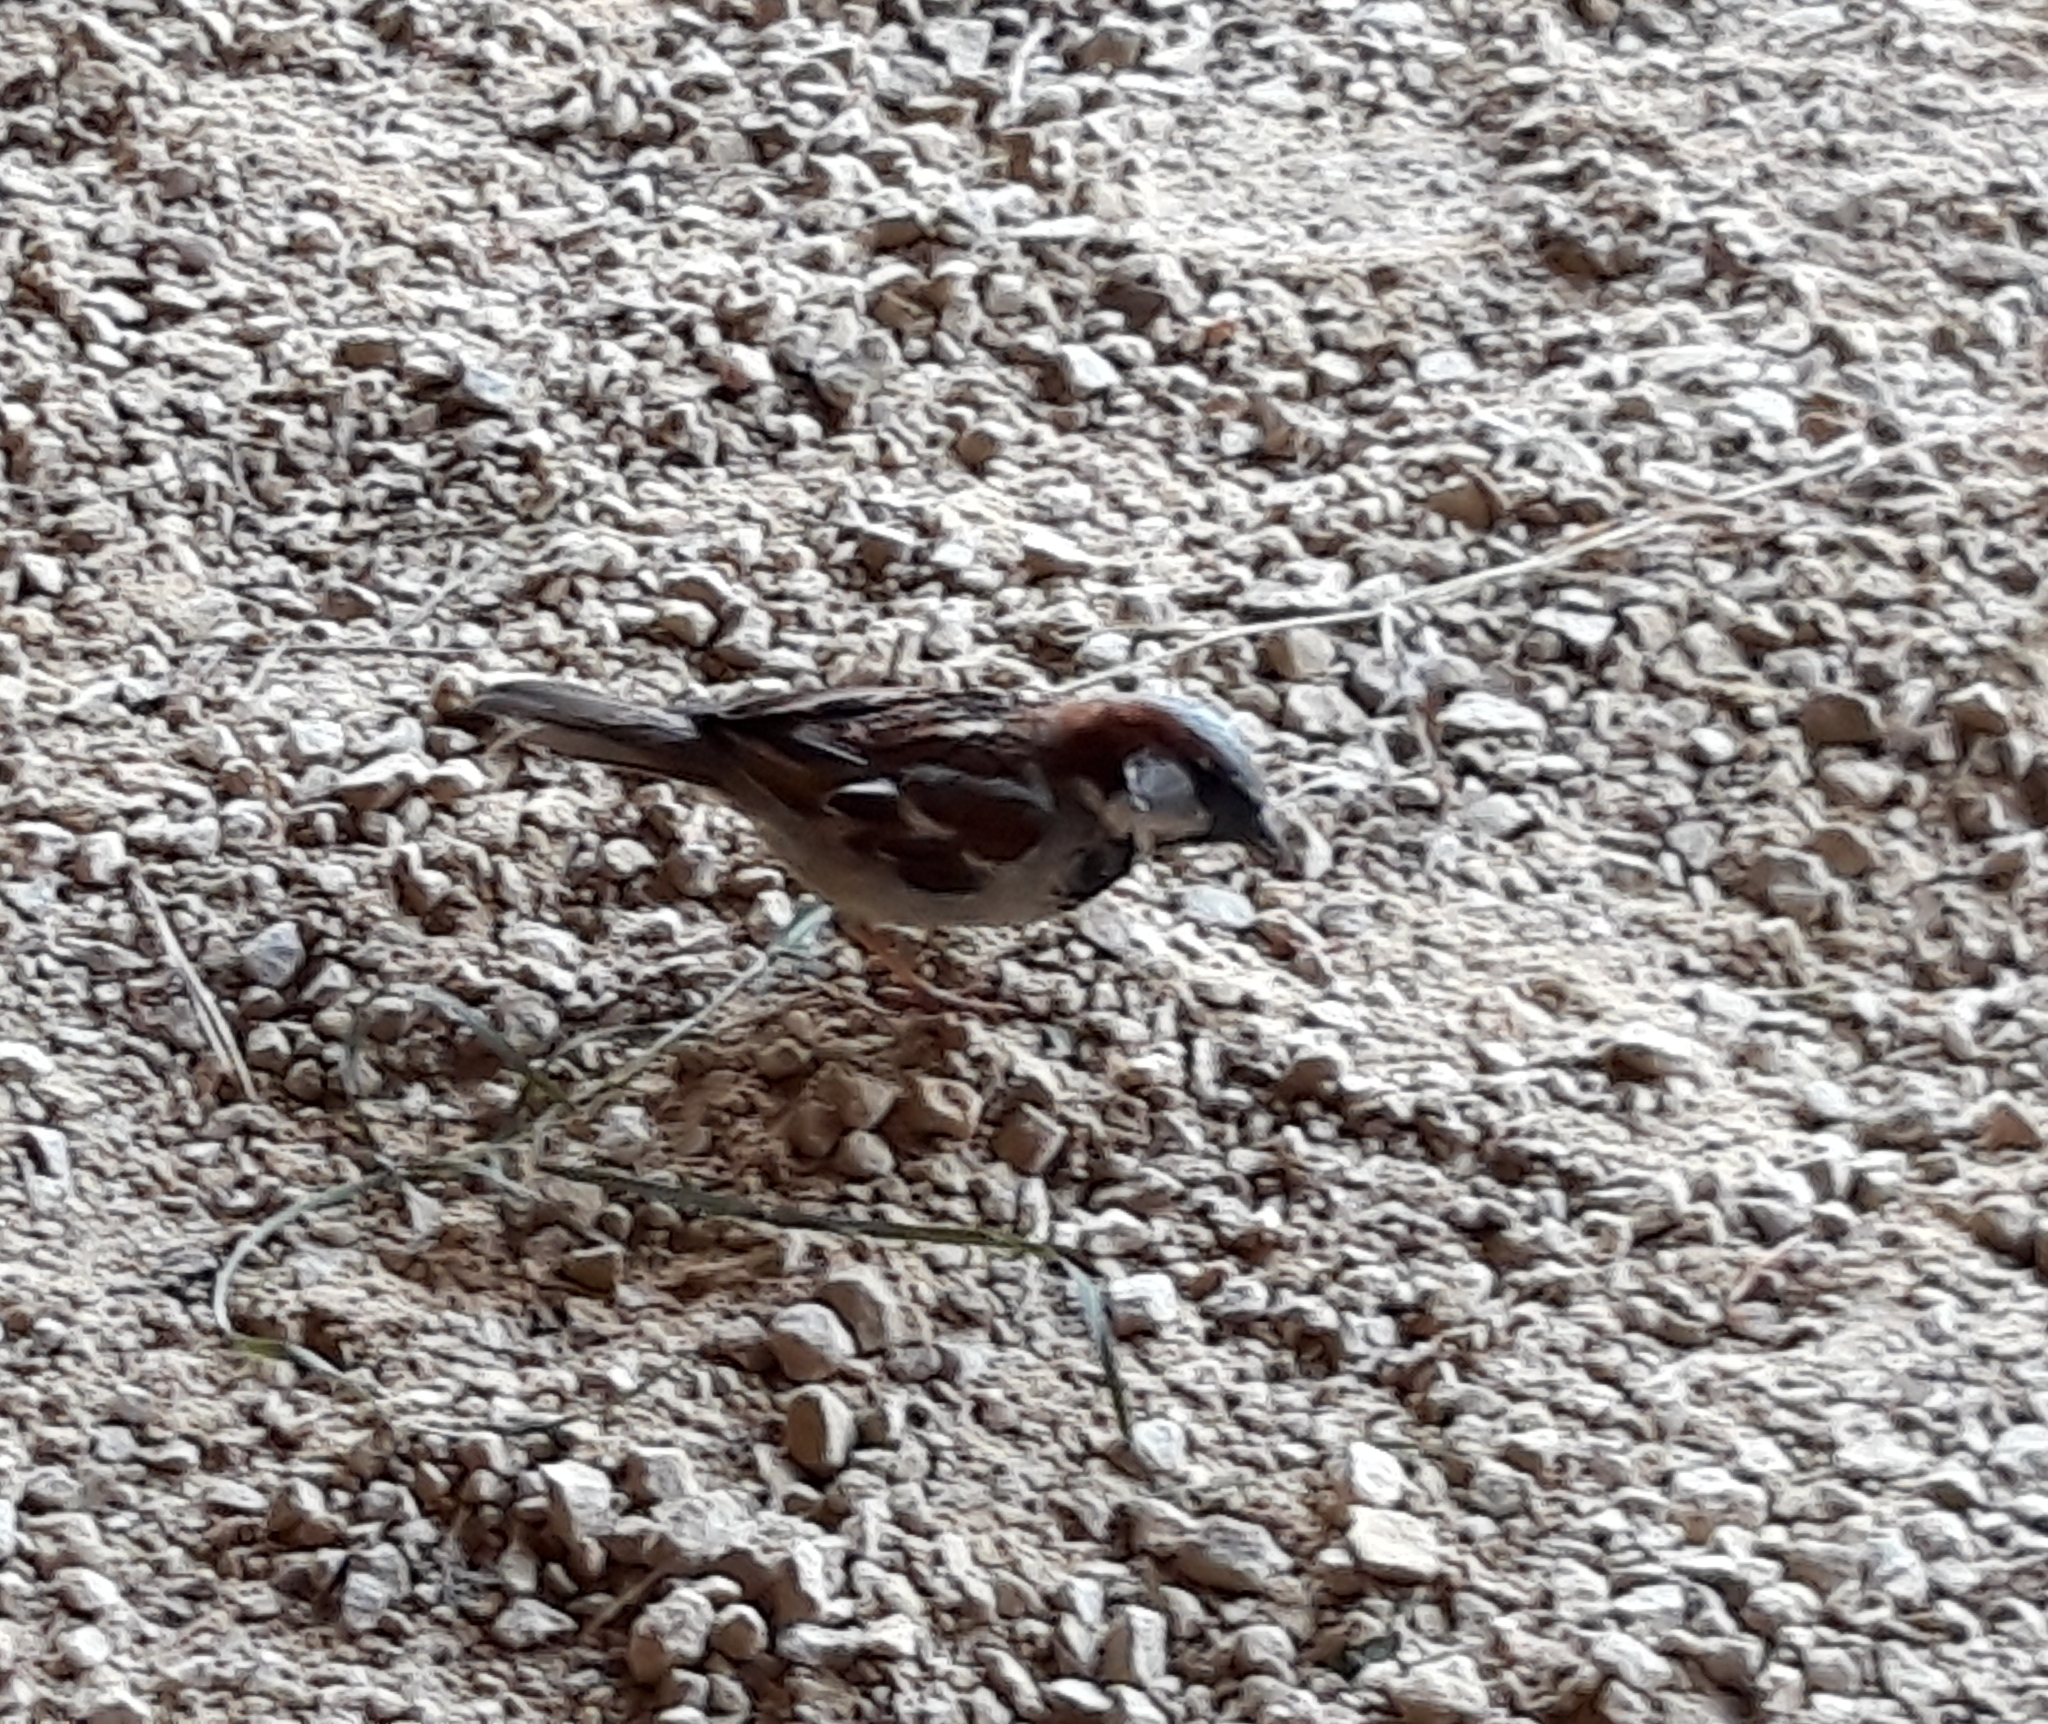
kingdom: Animalia
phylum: Chordata
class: Aves
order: Passeriformes
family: Passeridae
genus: Passer
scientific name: Passer domesticus
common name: House sparrow
